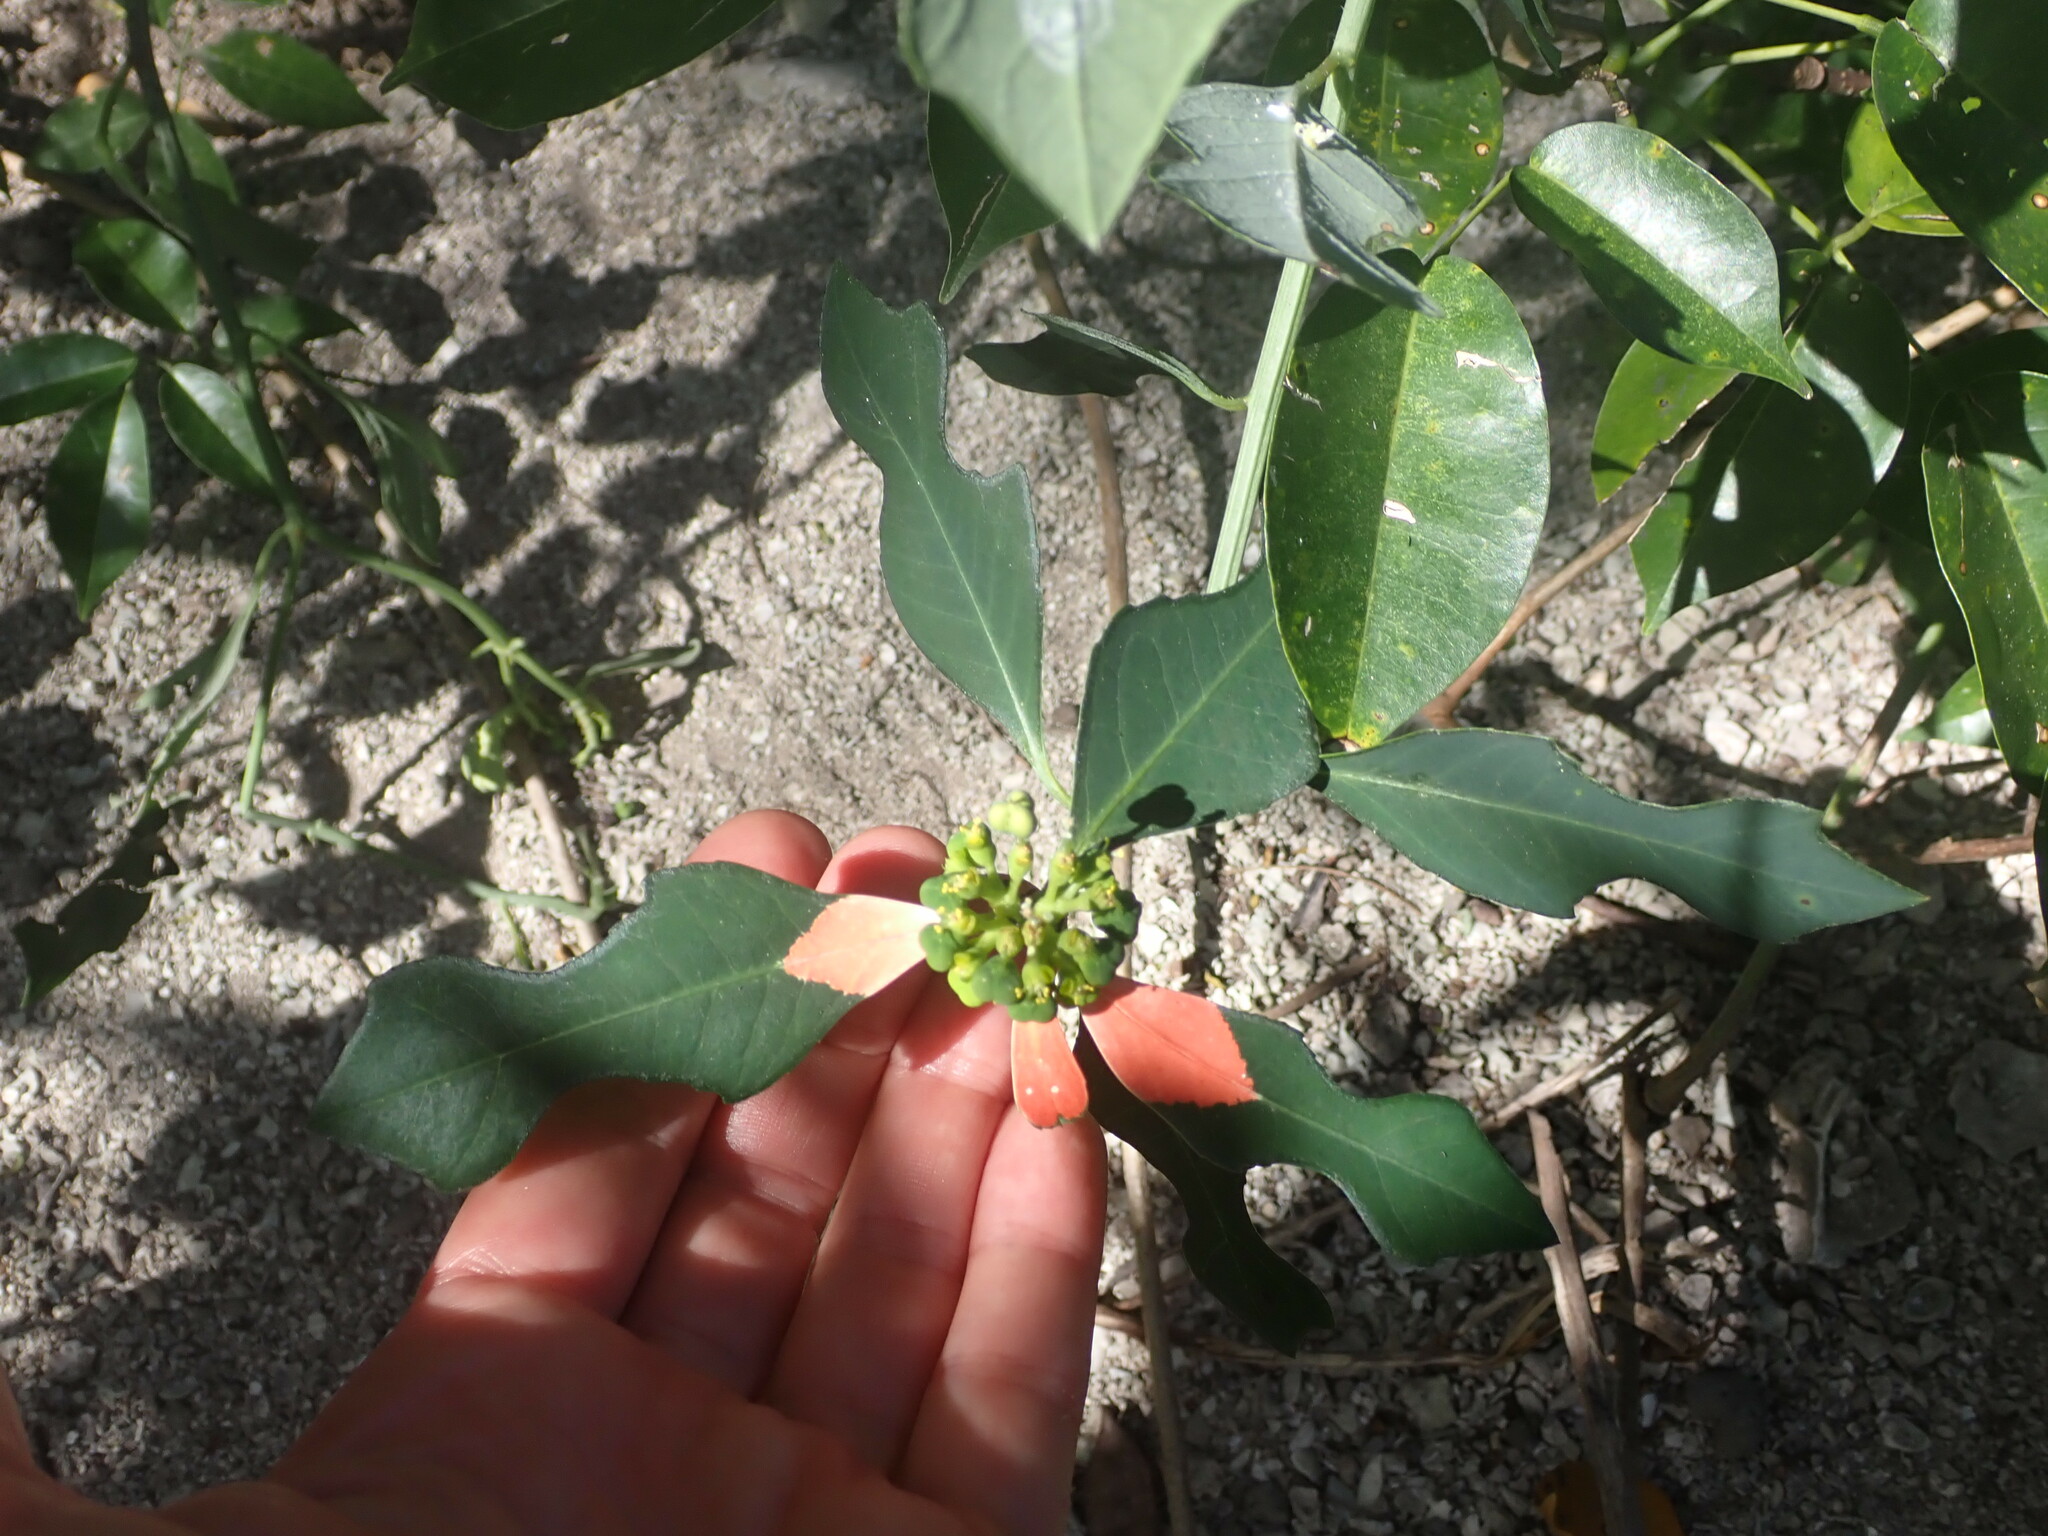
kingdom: Plantae
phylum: Tracheophyta
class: Magnoliopsida
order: Malpighiales
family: Euphorbiaceae
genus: Euphorbia
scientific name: Euphorbia heterophylla
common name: Mexican fireplant
